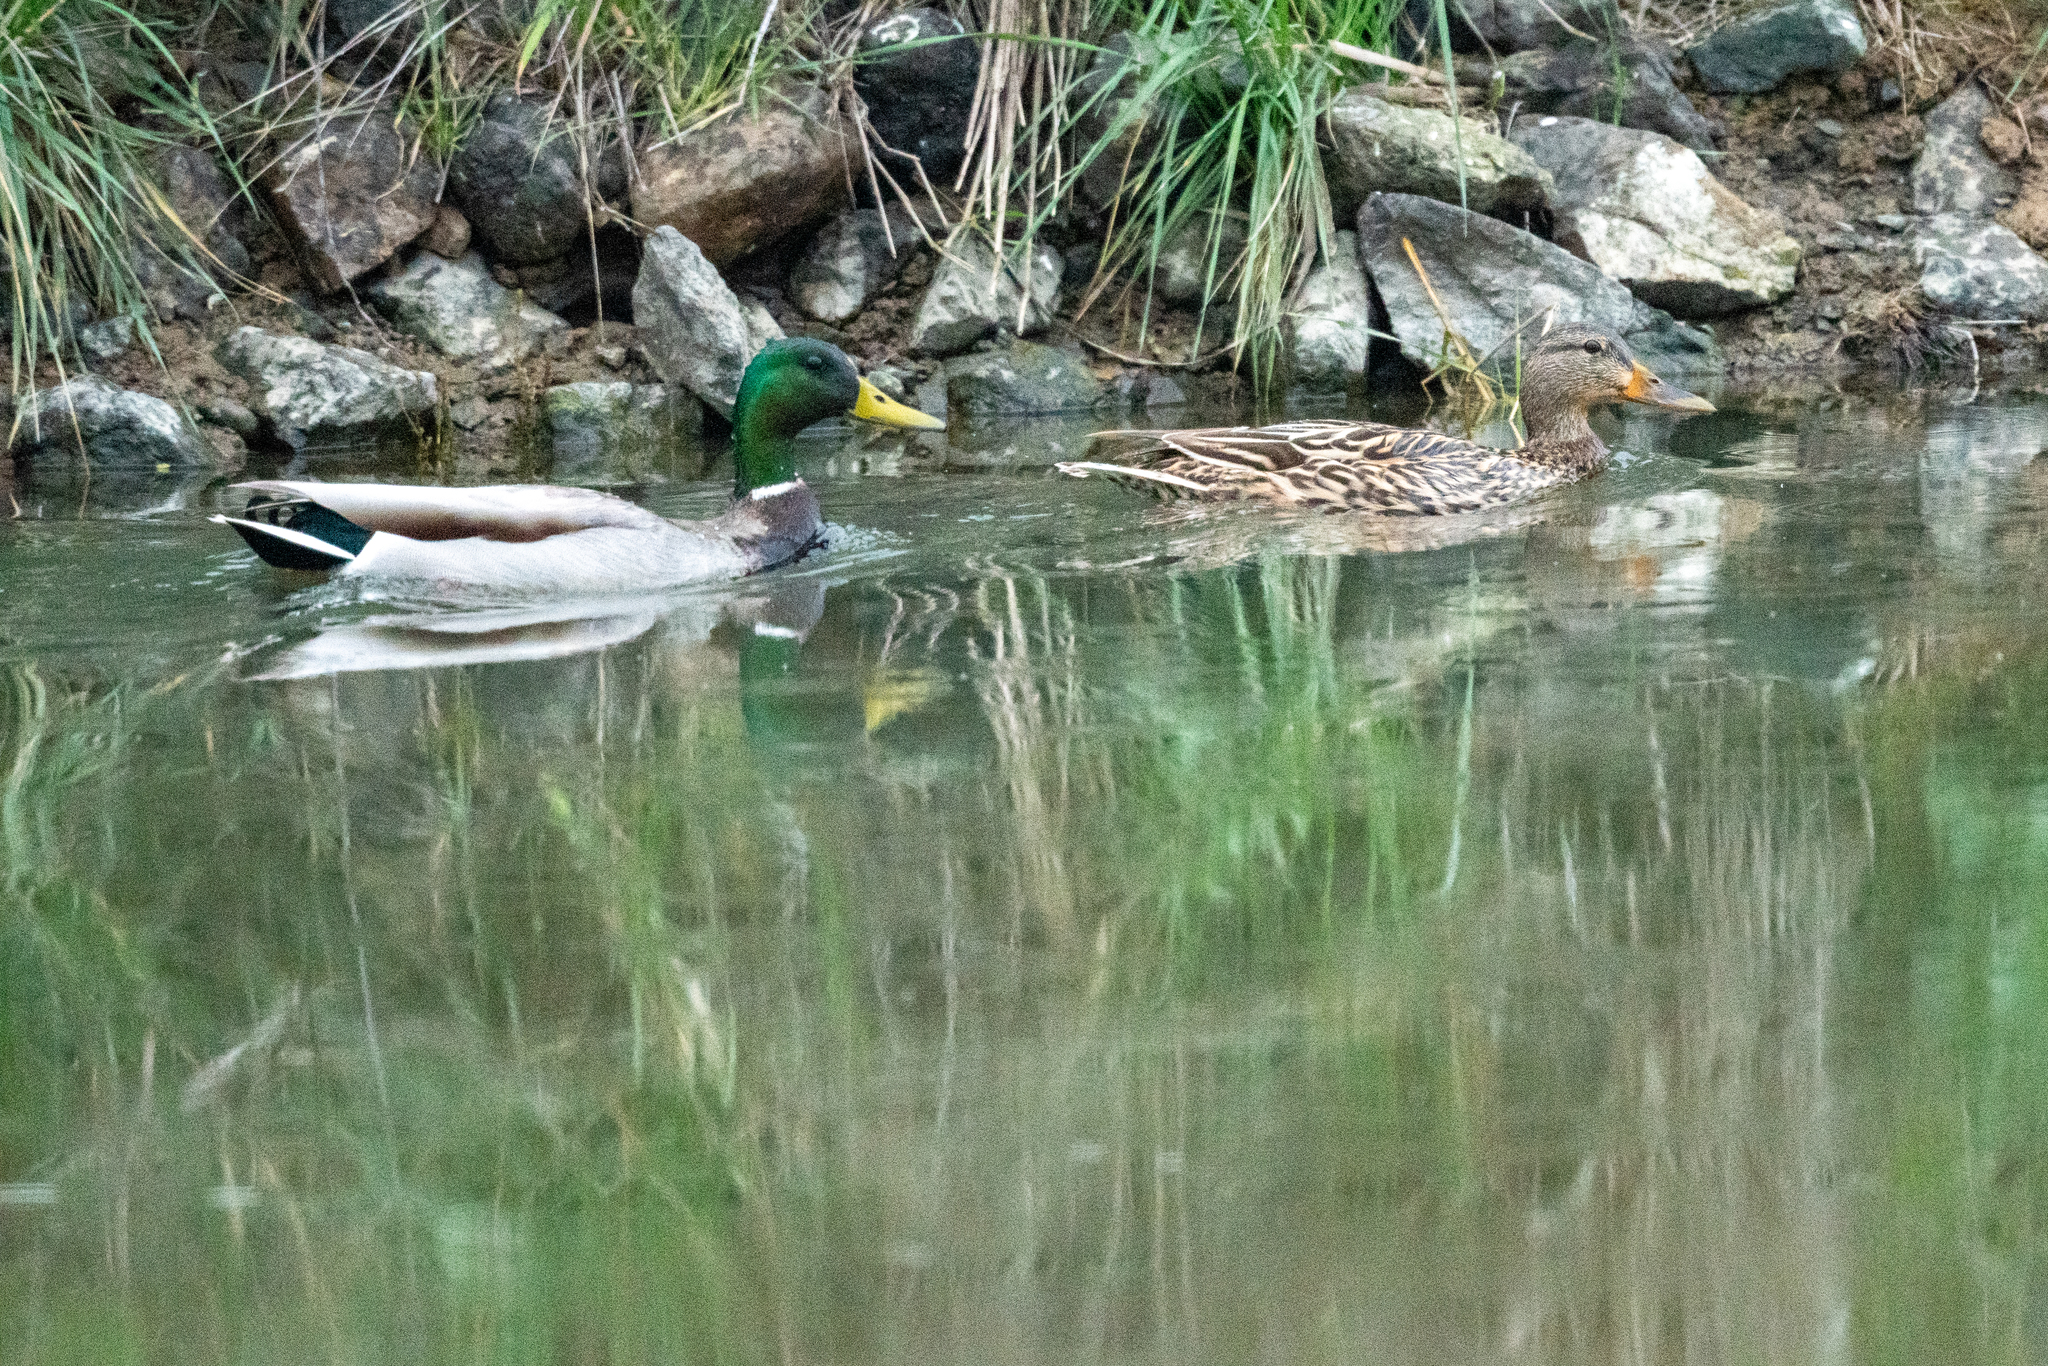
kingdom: Animalia
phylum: Chordata
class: Aves
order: Anseriformes
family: Anatidae
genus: Anas
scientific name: Anas platyrhynchos
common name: Mallard
